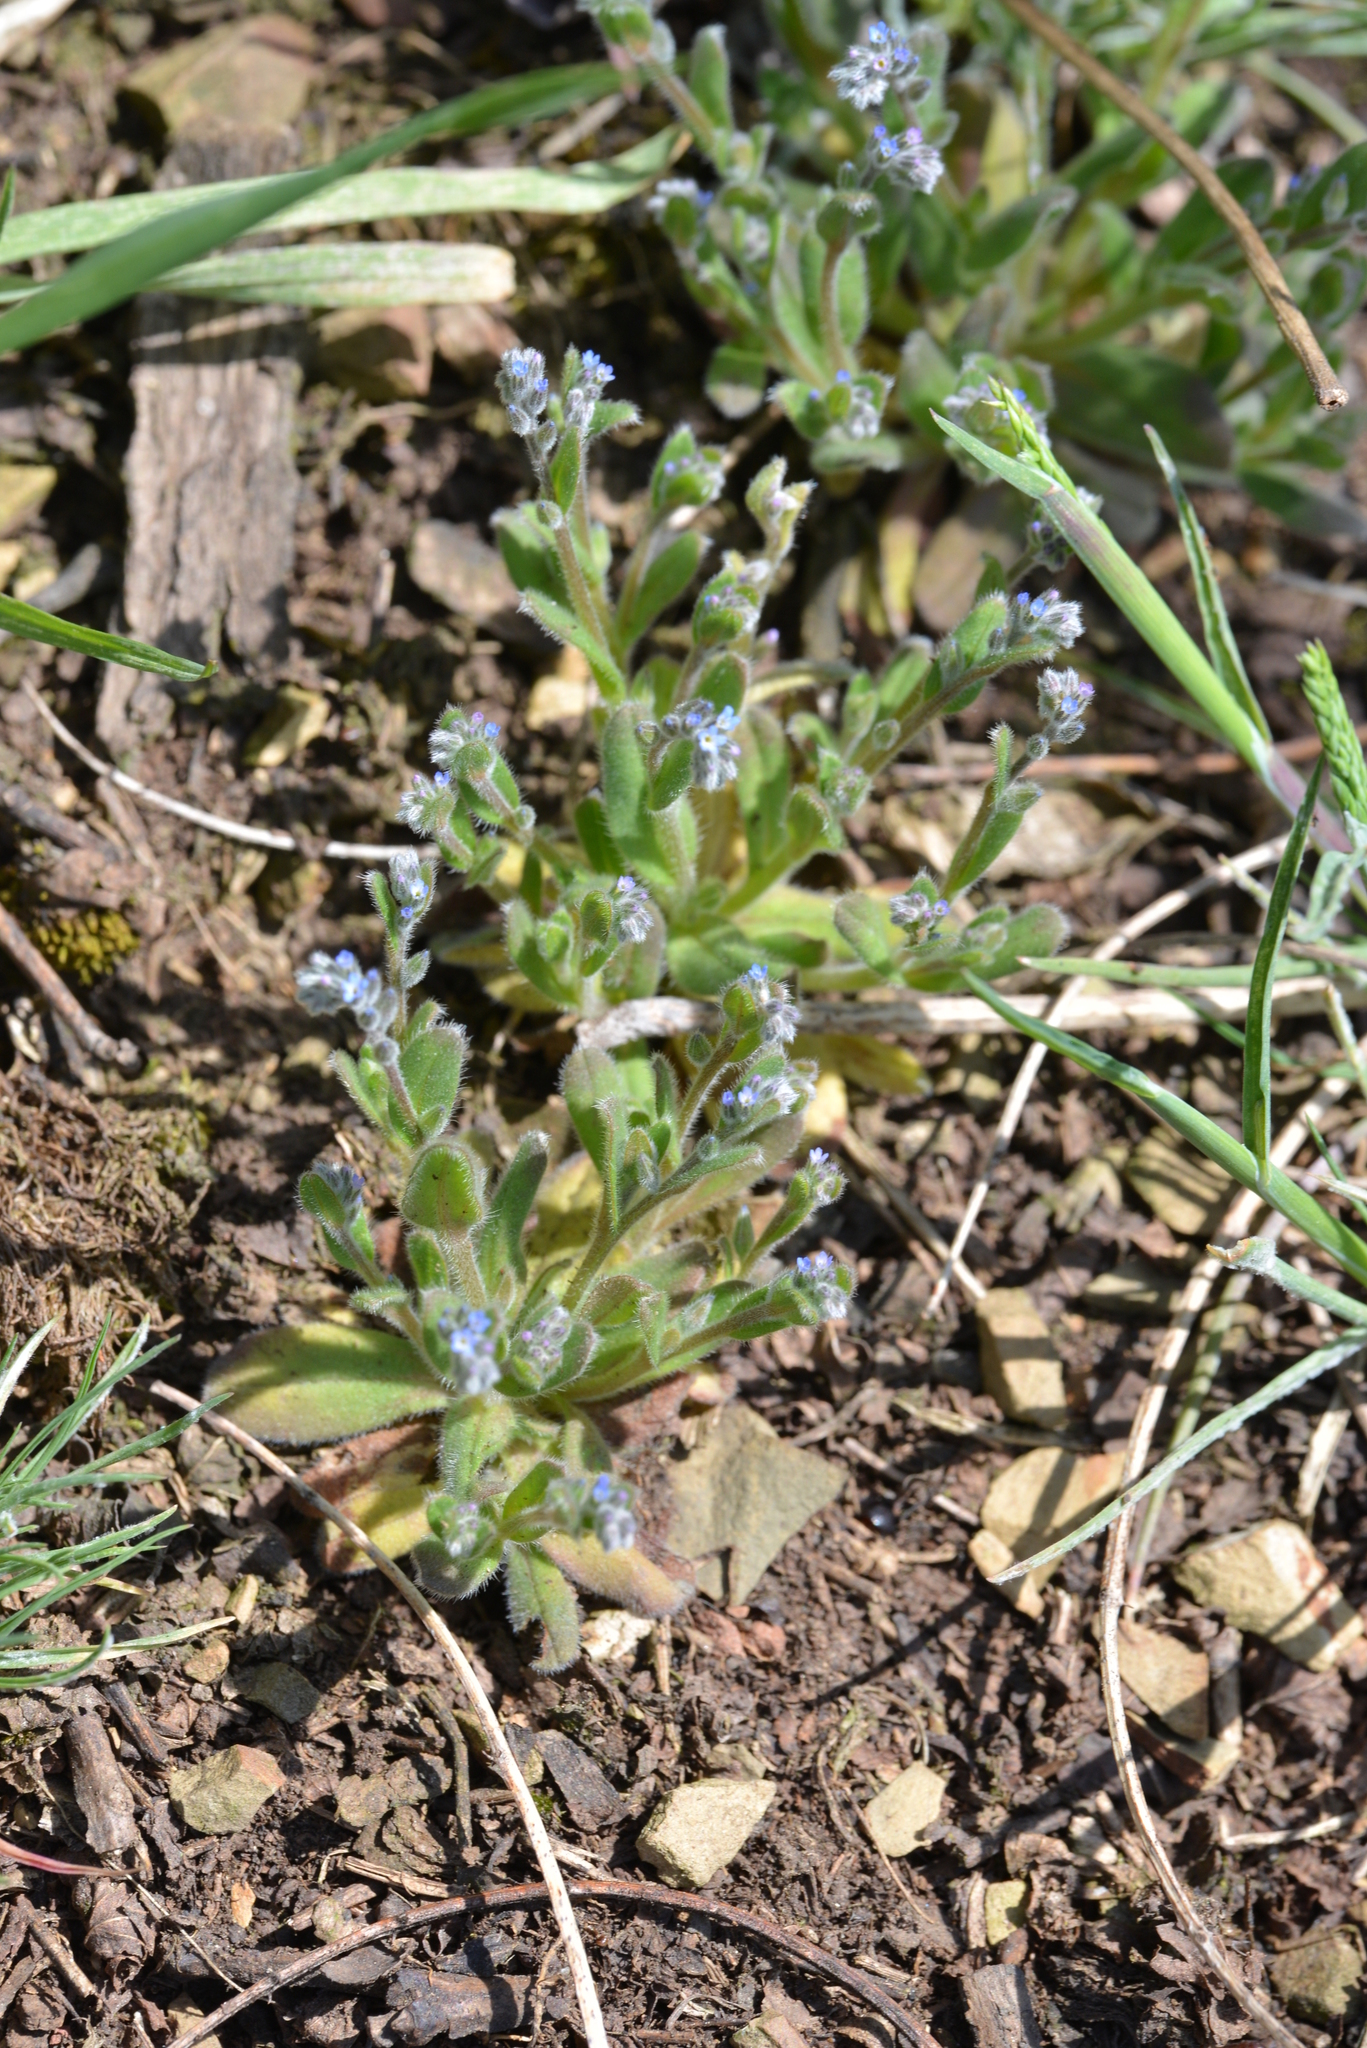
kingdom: Plantae
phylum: Tracheophyta
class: Magnoliopsida
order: Boraginales
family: Boraginaceae
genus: Myosotis
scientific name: Myosotis stricta
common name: Strict forget-me-not
